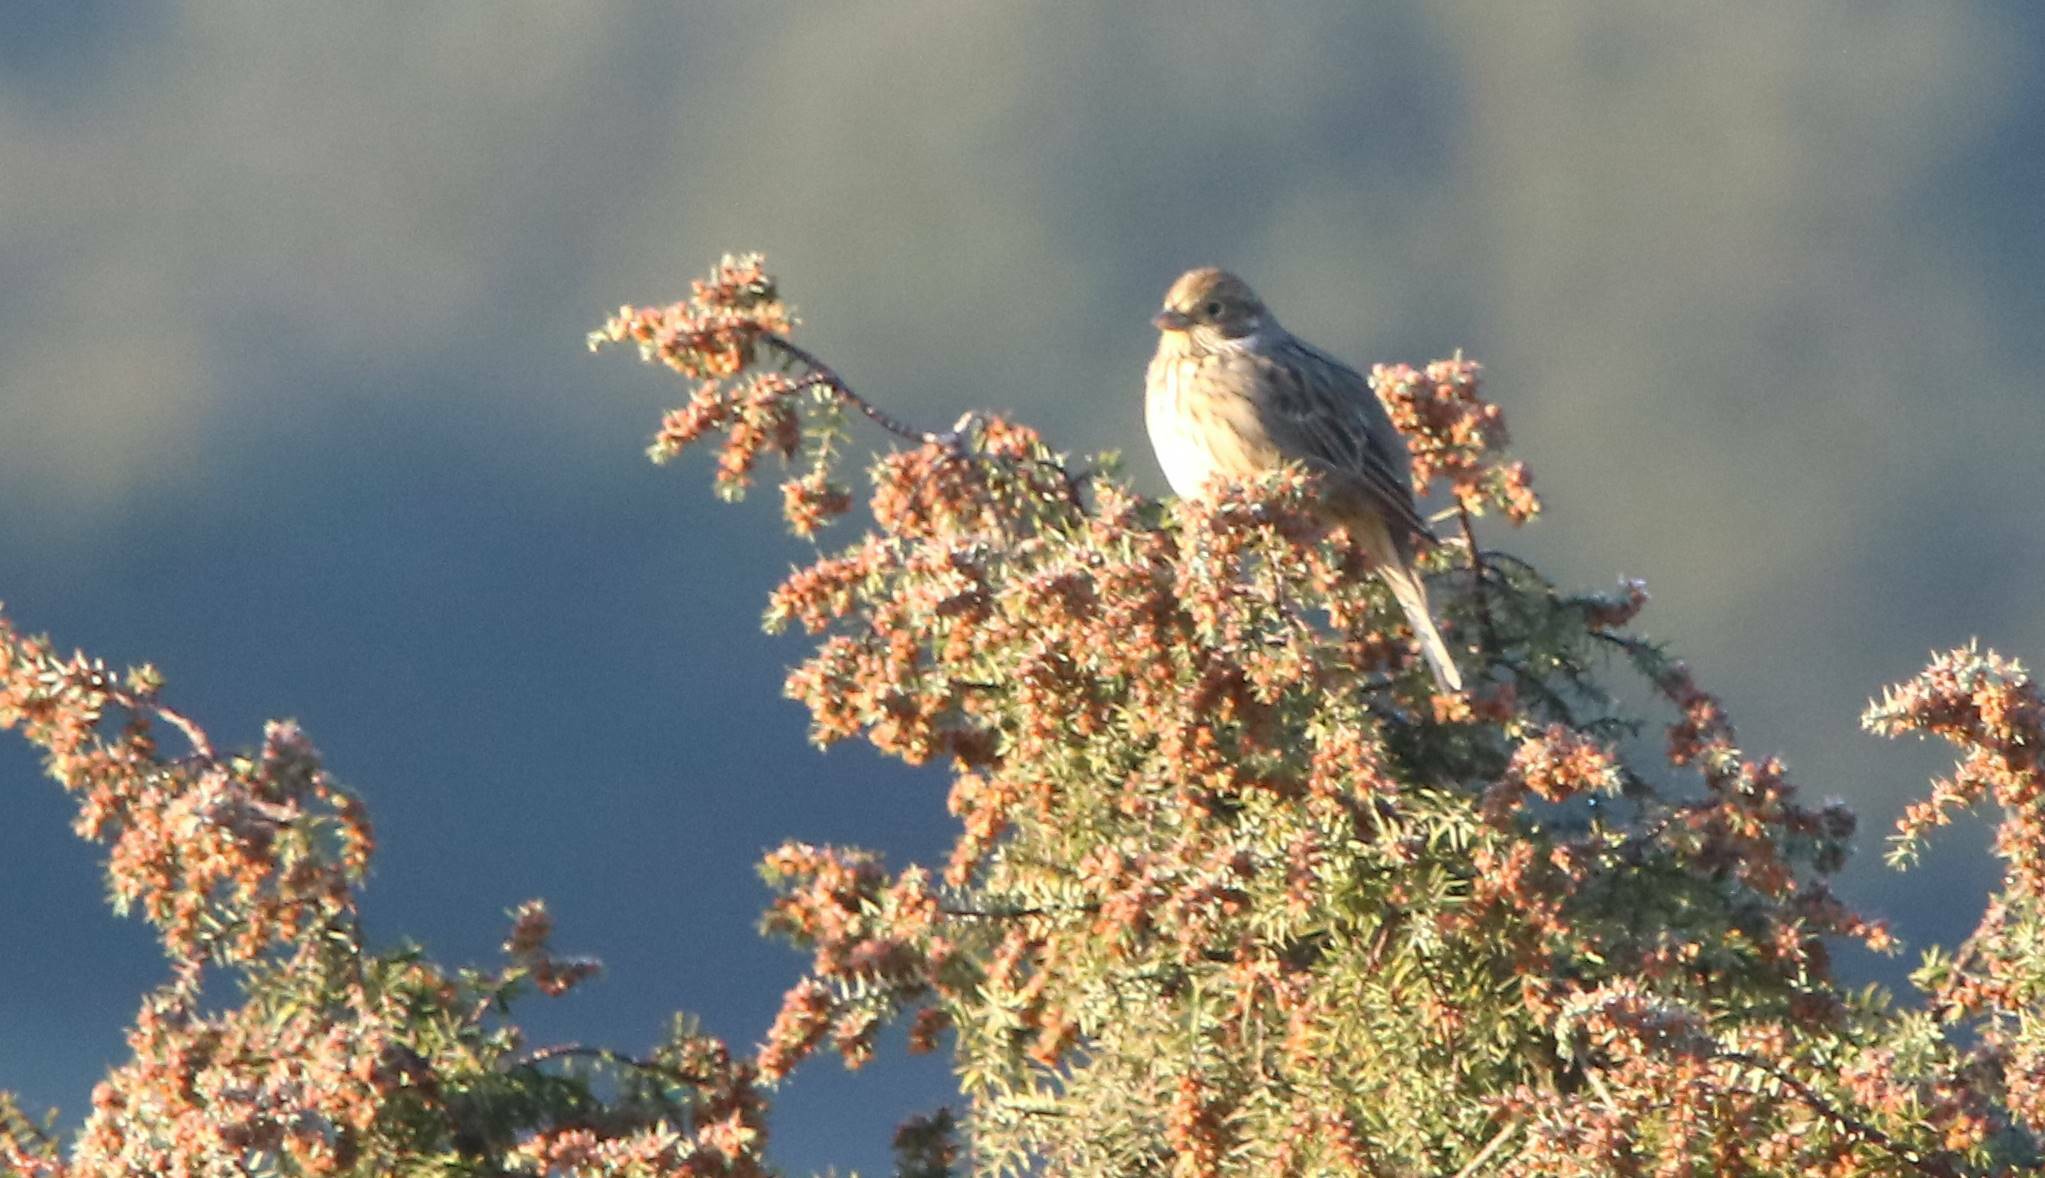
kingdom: Animalia
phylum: Chordata
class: Aves
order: Passeriformes
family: Emberizidae
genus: Emberiza
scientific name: Emberiza cirlus
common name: Cirl bunting
